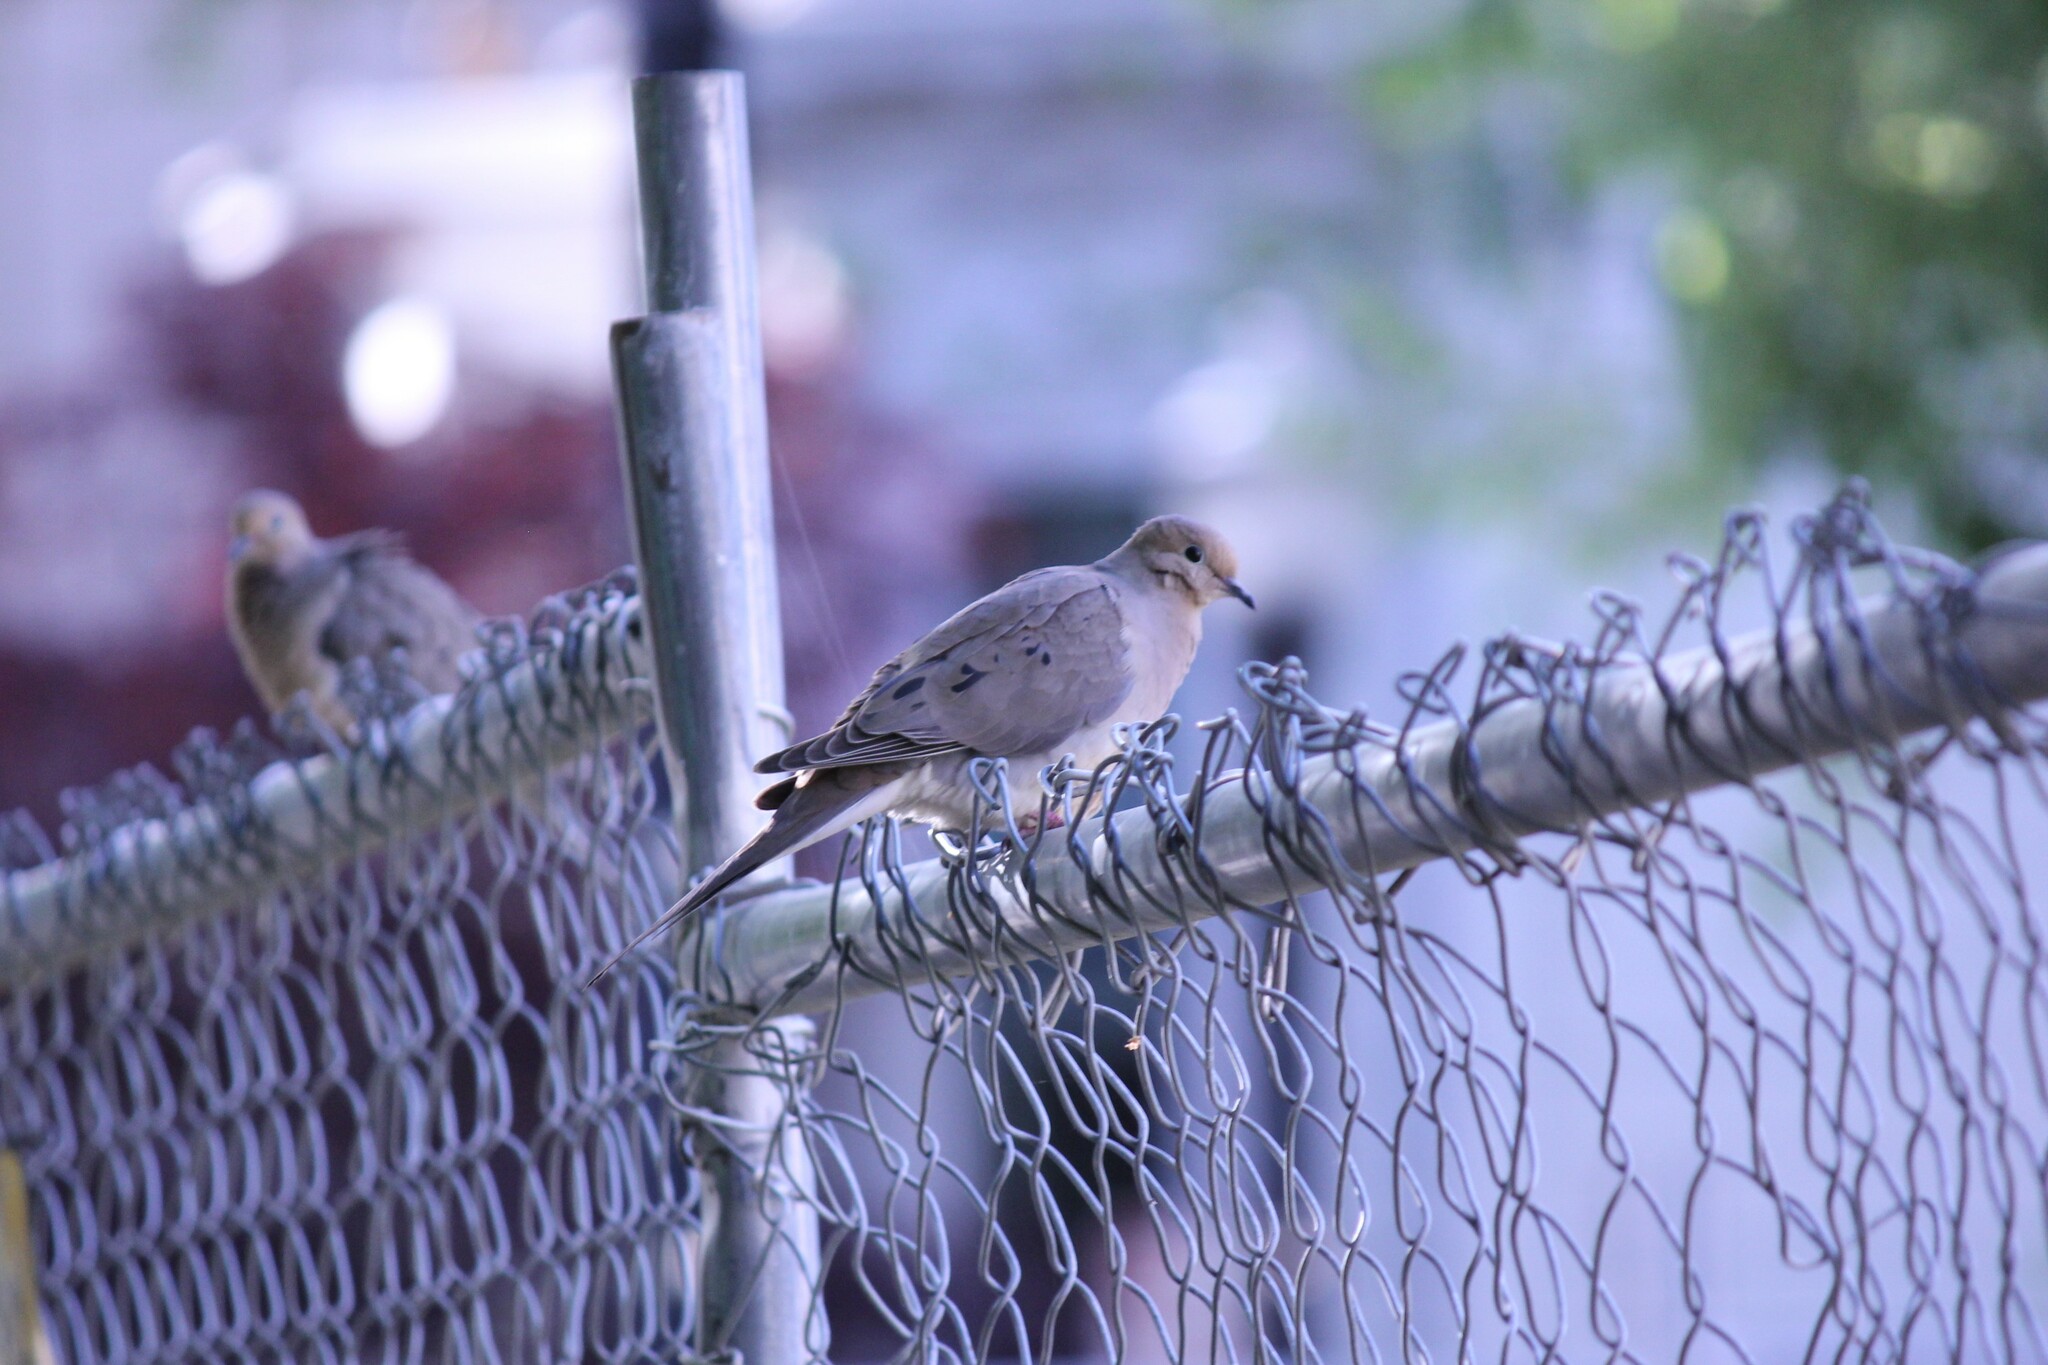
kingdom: Animalia
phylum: Chordata
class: Aves
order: Columbiformes
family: Columbidae
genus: Zenaida
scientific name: Zenaida macroura
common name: Mourning dove
